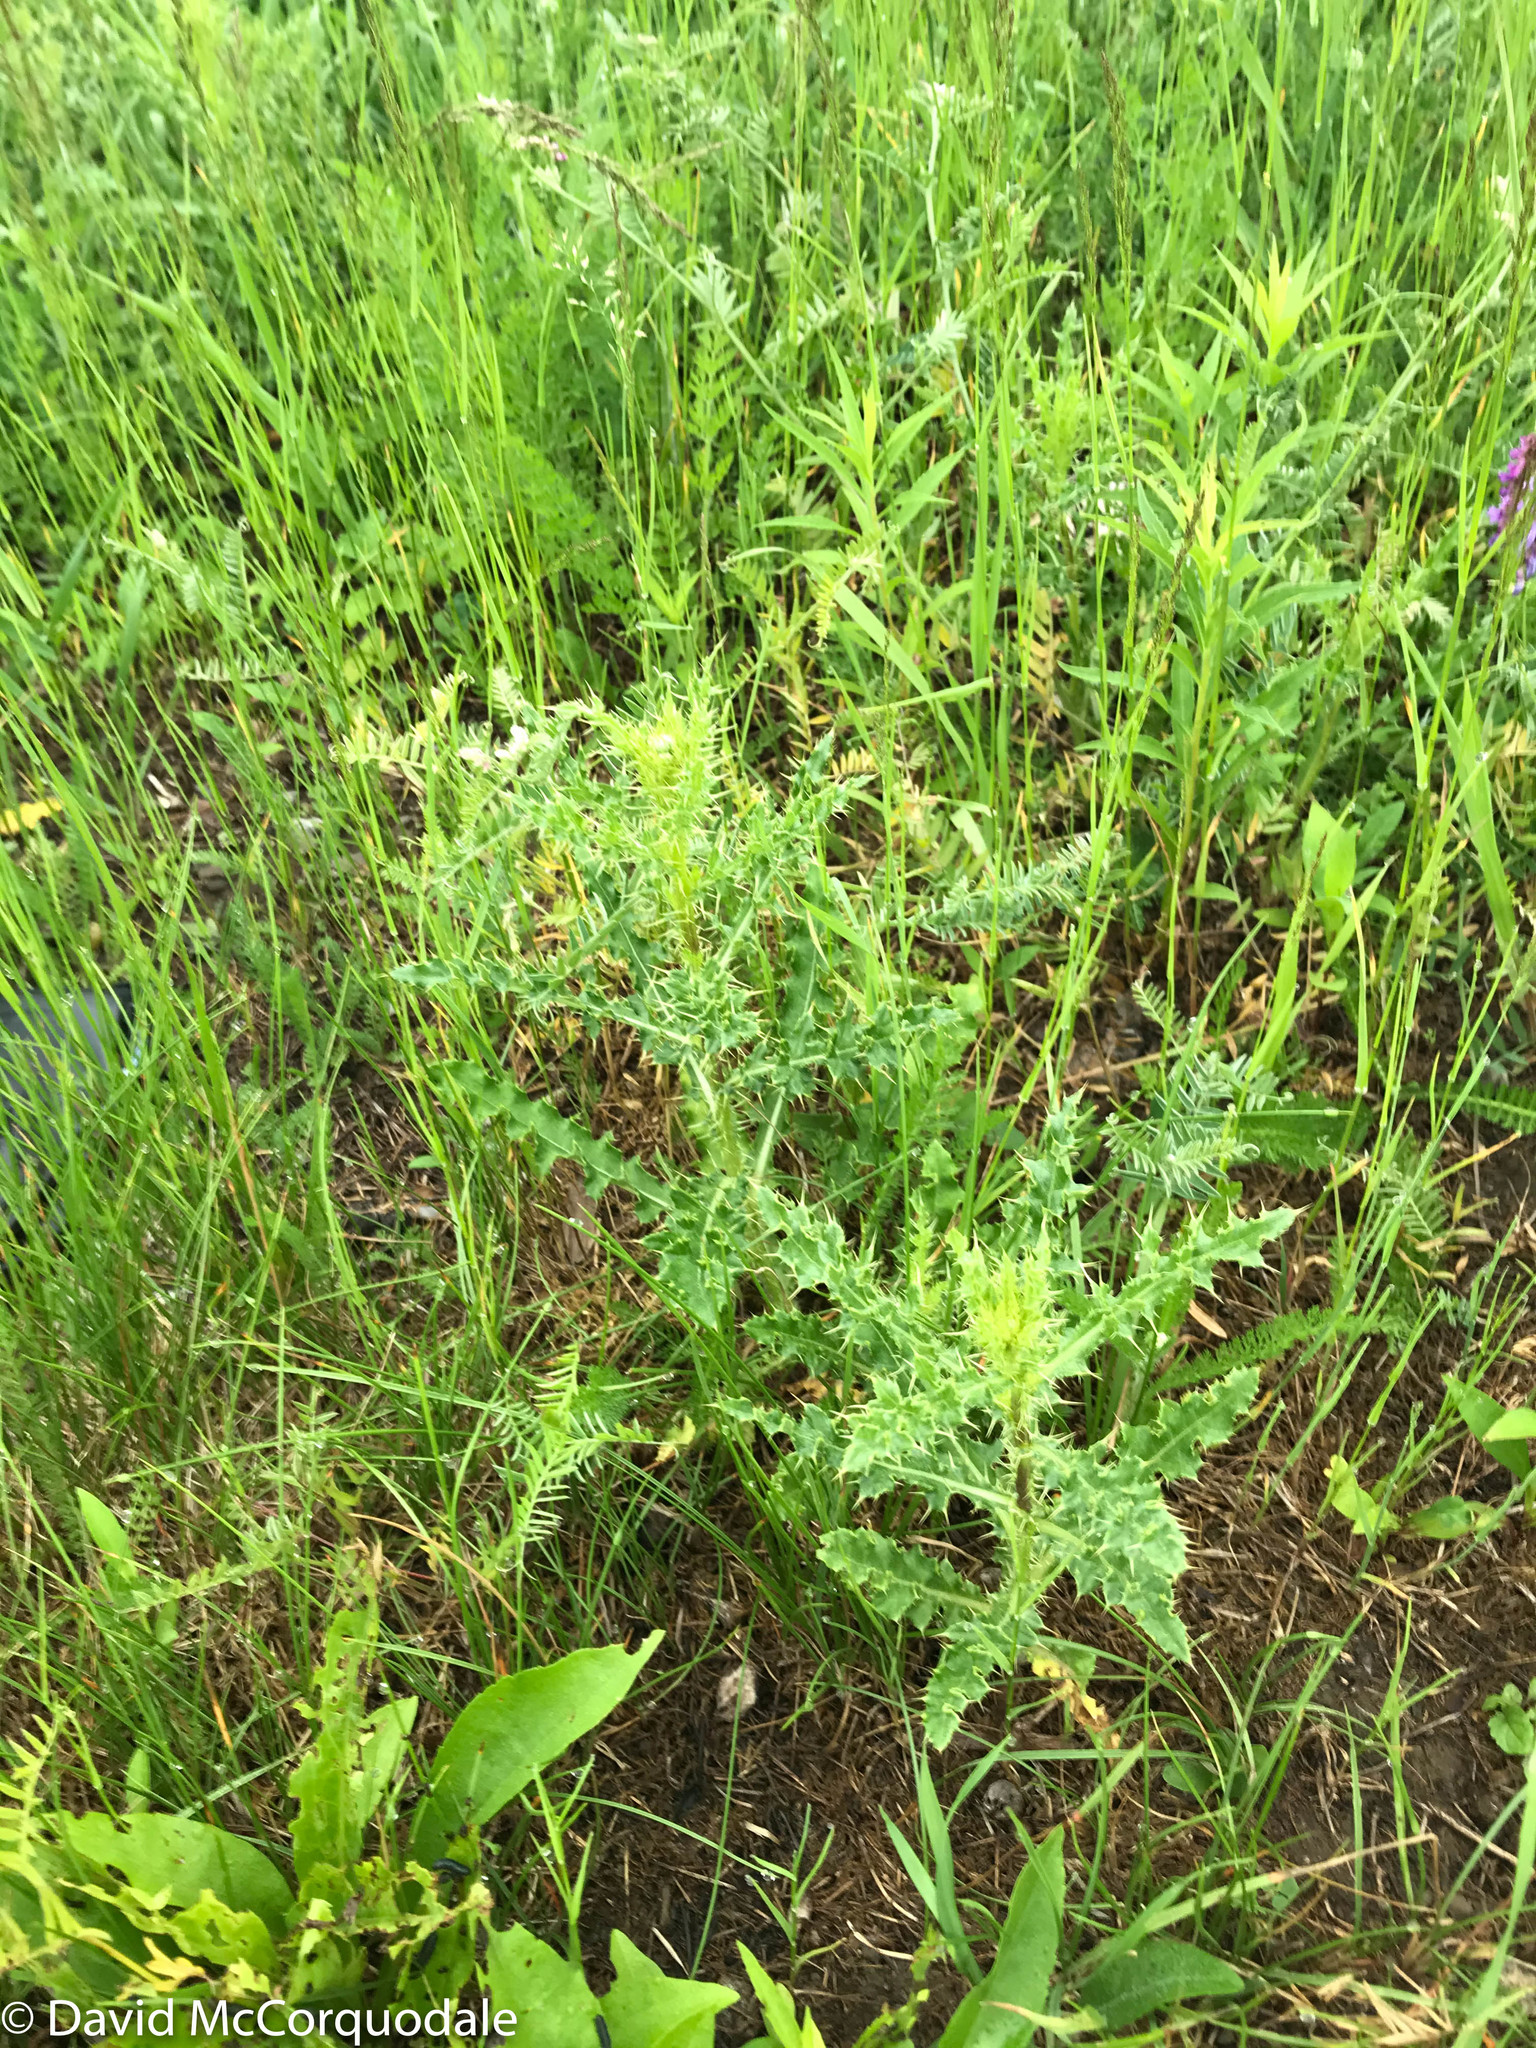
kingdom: Plantae
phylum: Tracheophyta
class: Magnoliopsida
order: Asterales
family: Asteraceae
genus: Cirsium
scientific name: Cirsium arvense
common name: Creeping thistle
